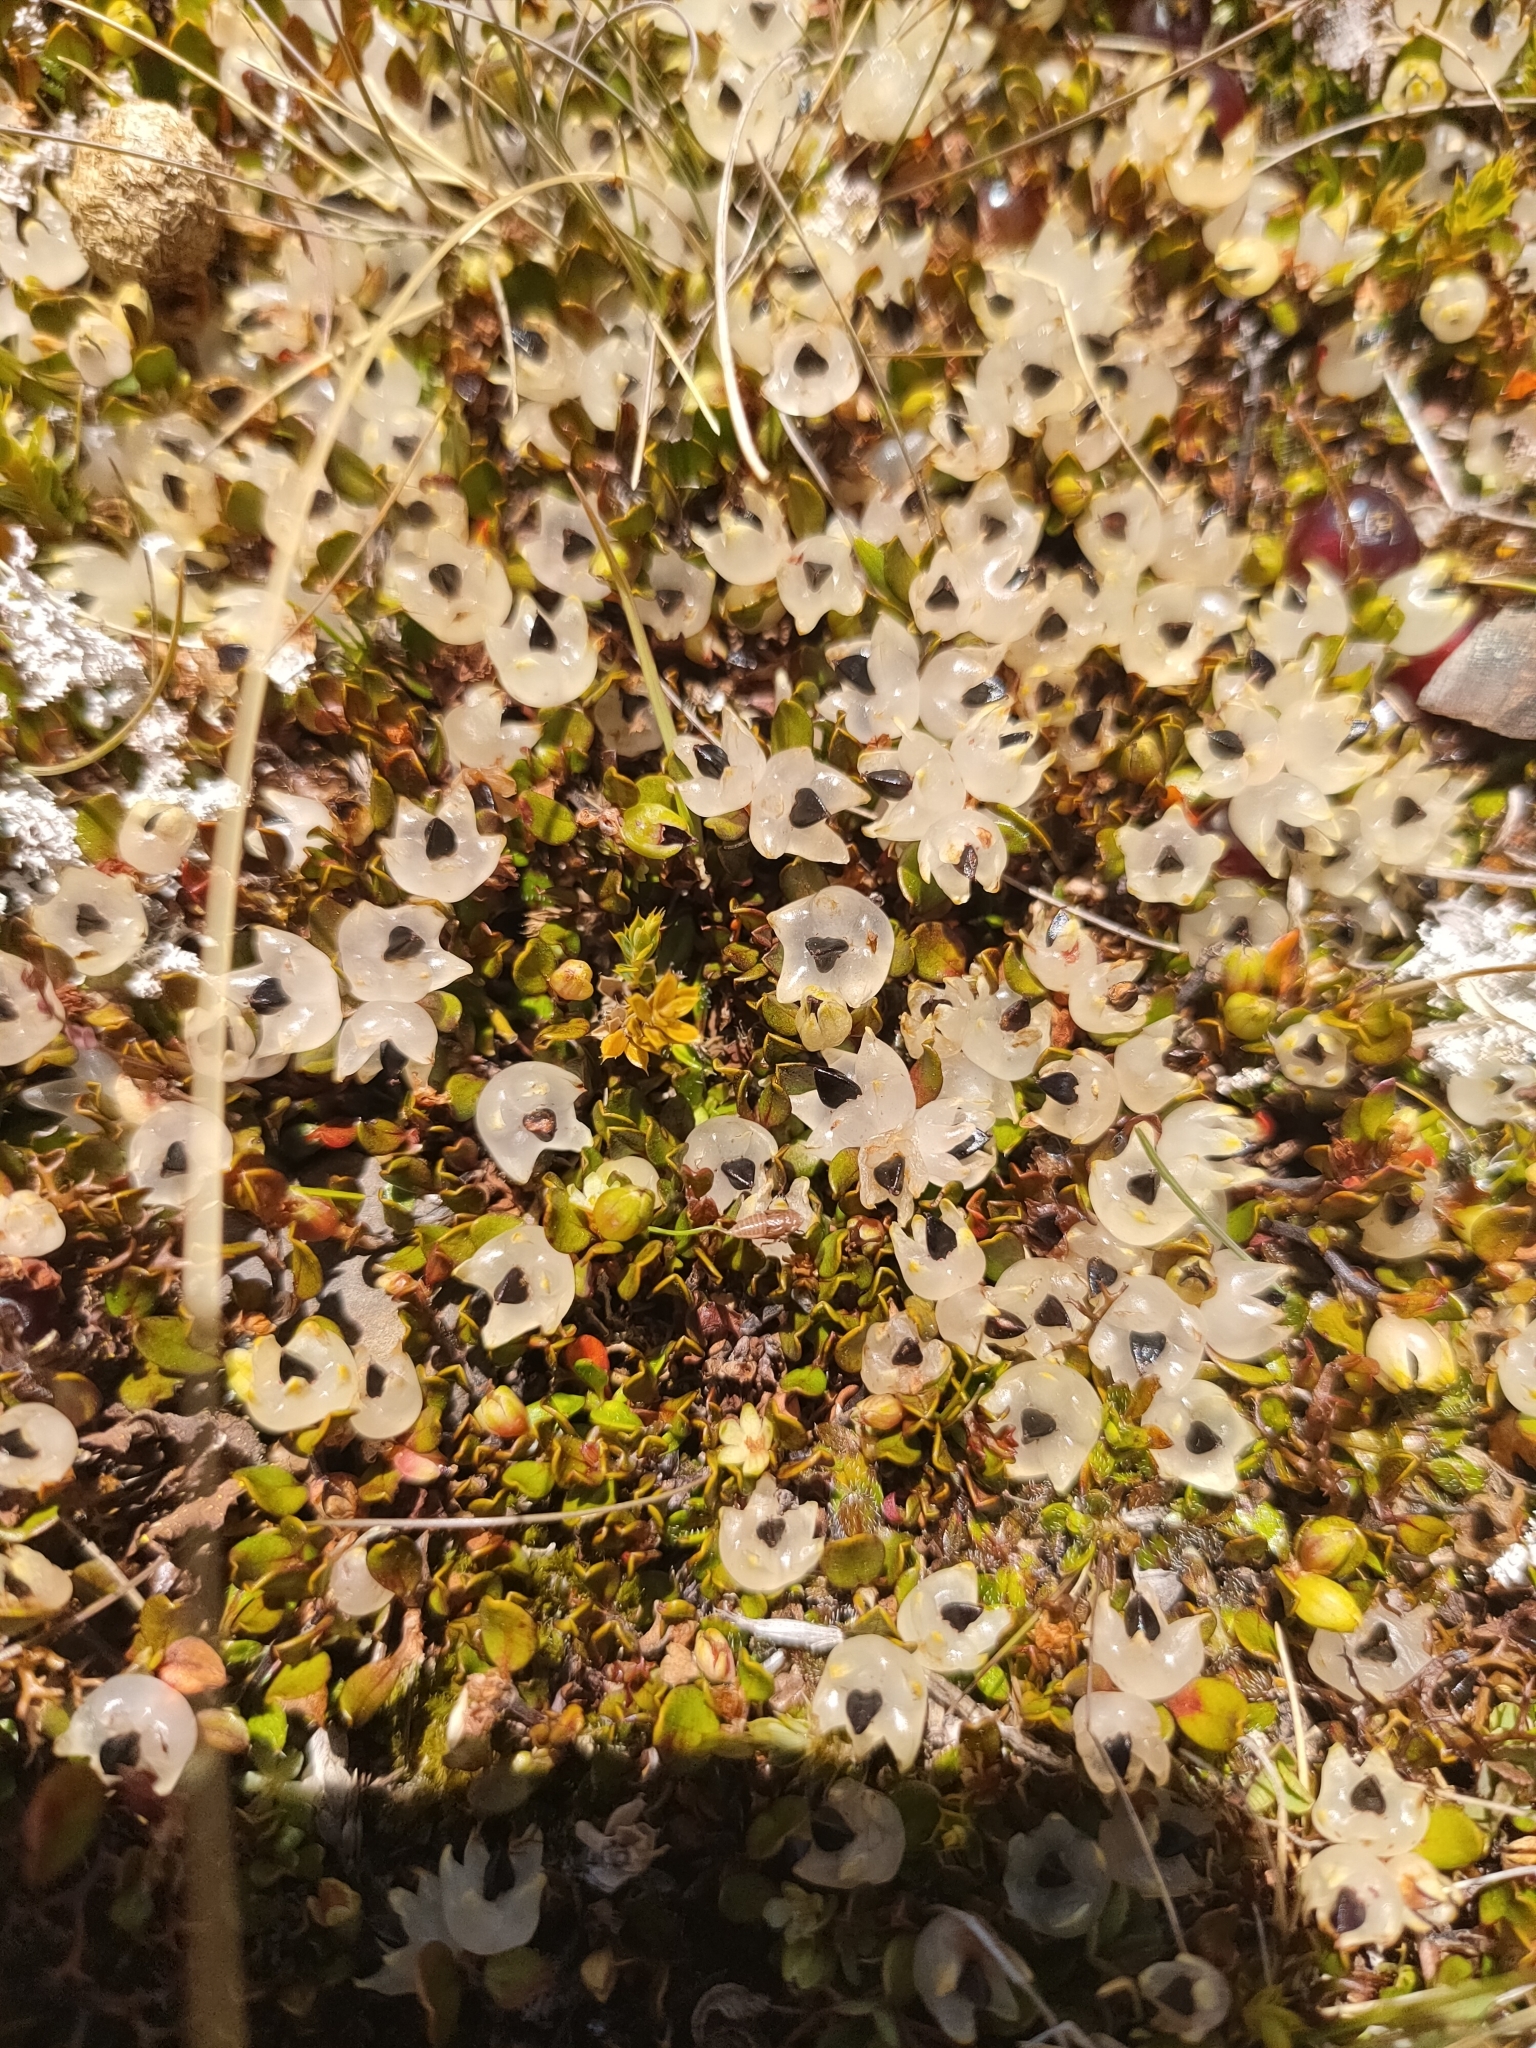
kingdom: Plantae
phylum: Tracheophyta
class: Magnoliopsida
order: Caryophyllales
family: Polygonaceae
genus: Muehlenbeckia
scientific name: Muehlenbeckia axillaris
